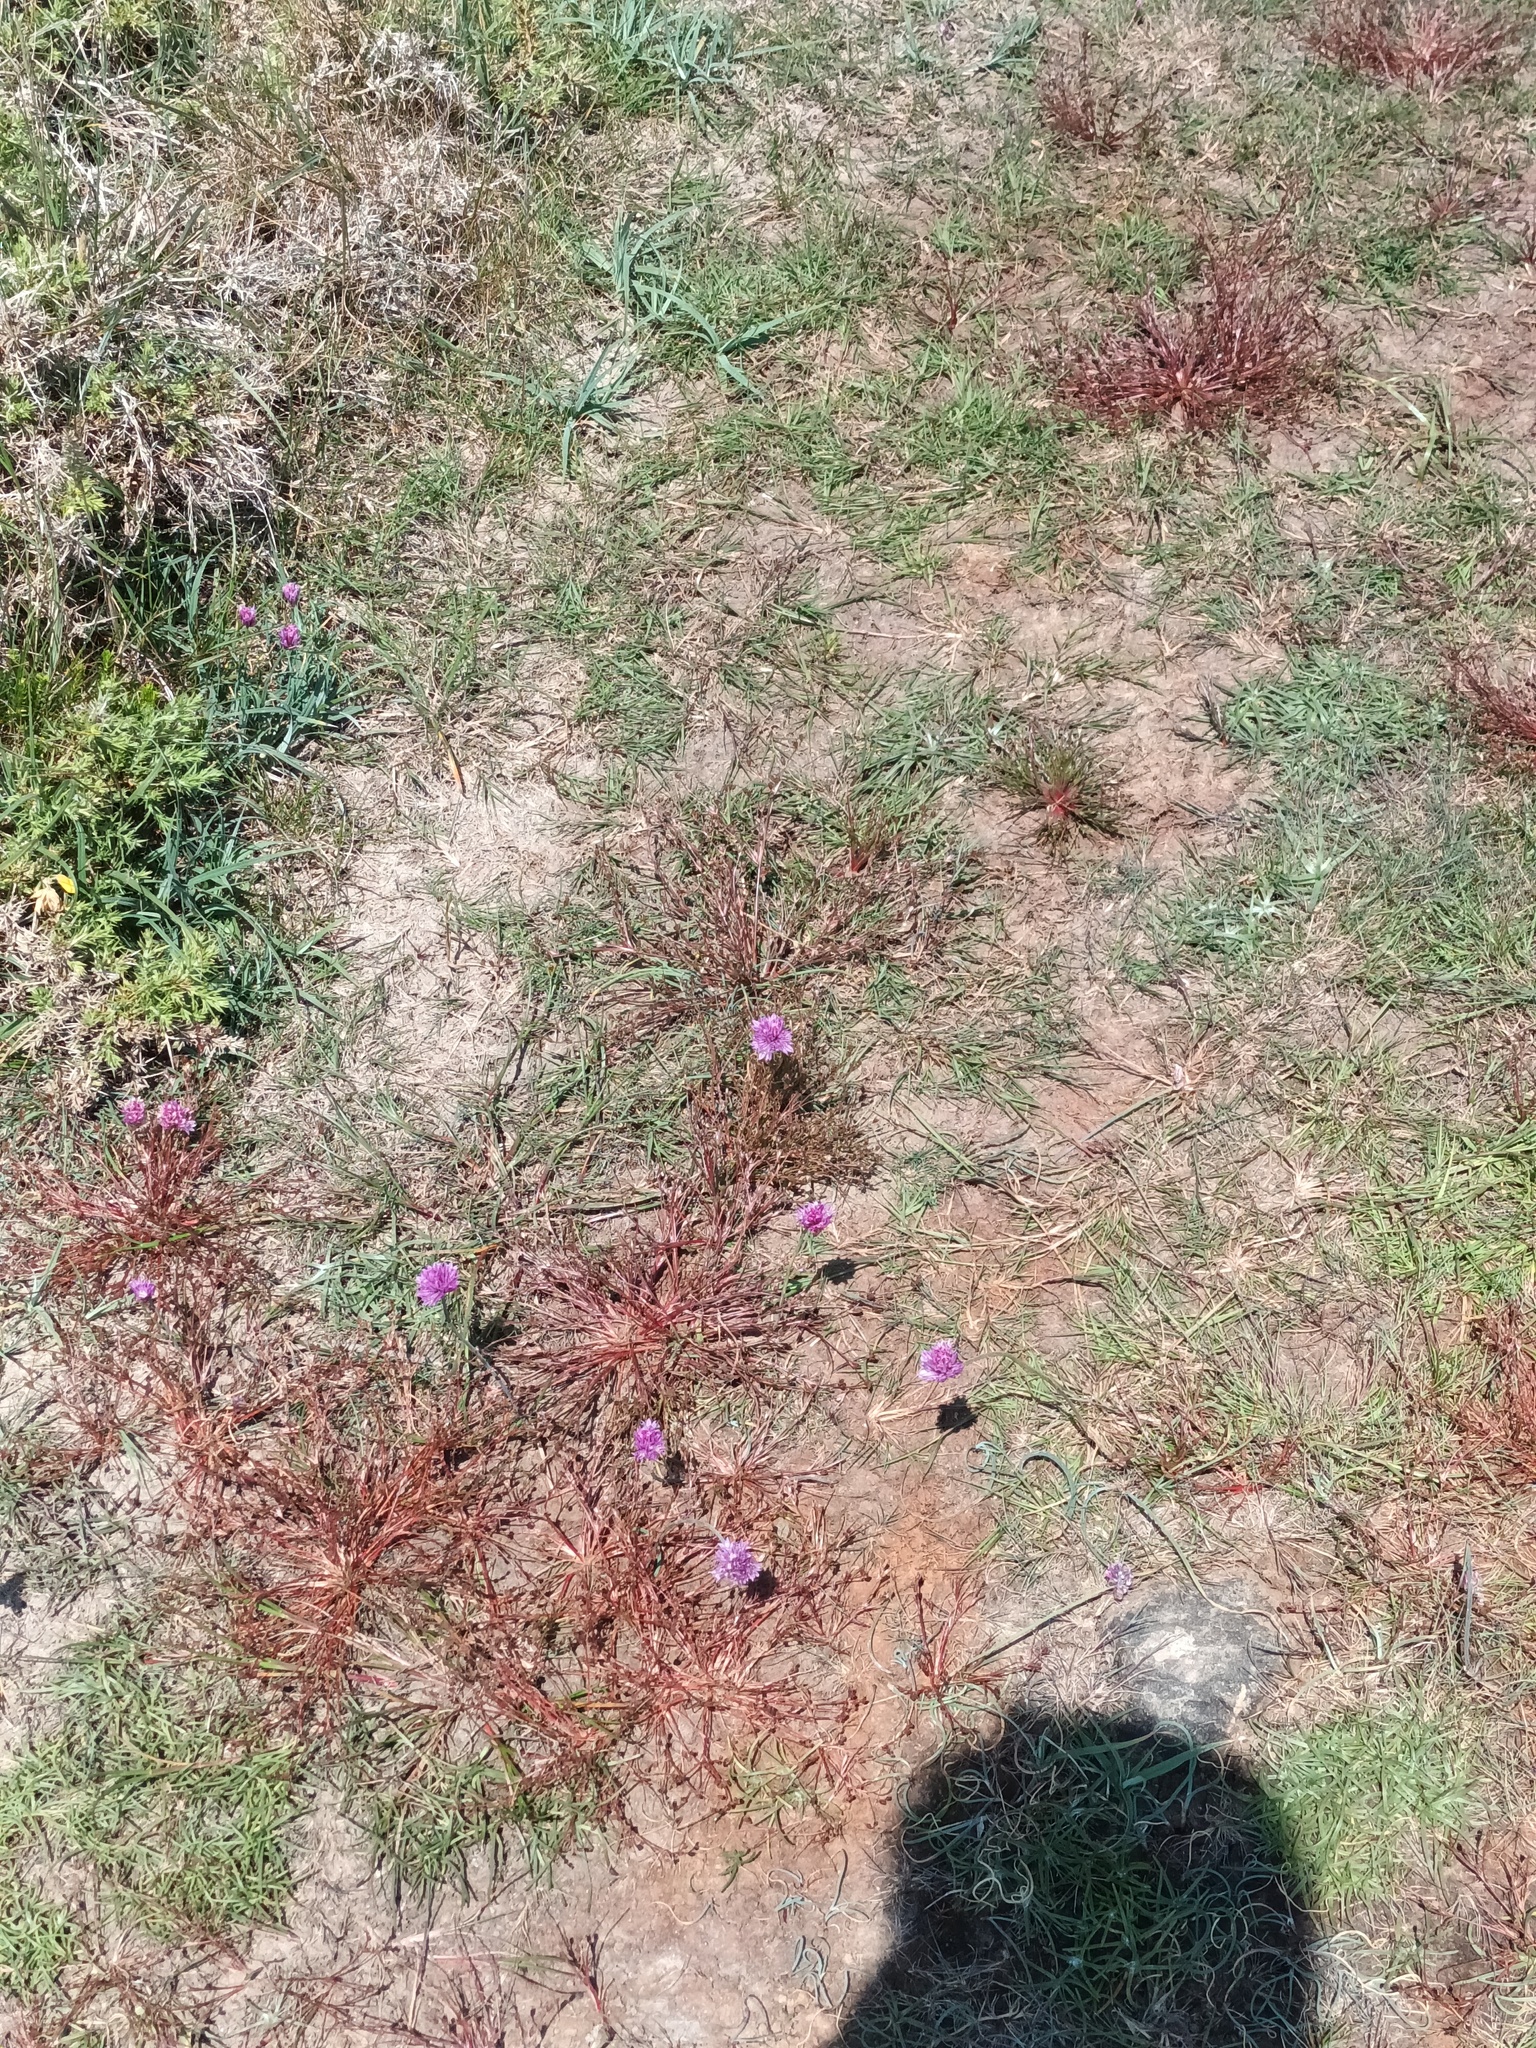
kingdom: Plantae
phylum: Tracheophyta
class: Liliopsida
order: Asparagales
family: Amaryllidaceae
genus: Allium
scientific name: Allium schoenoprasum
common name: Chives
